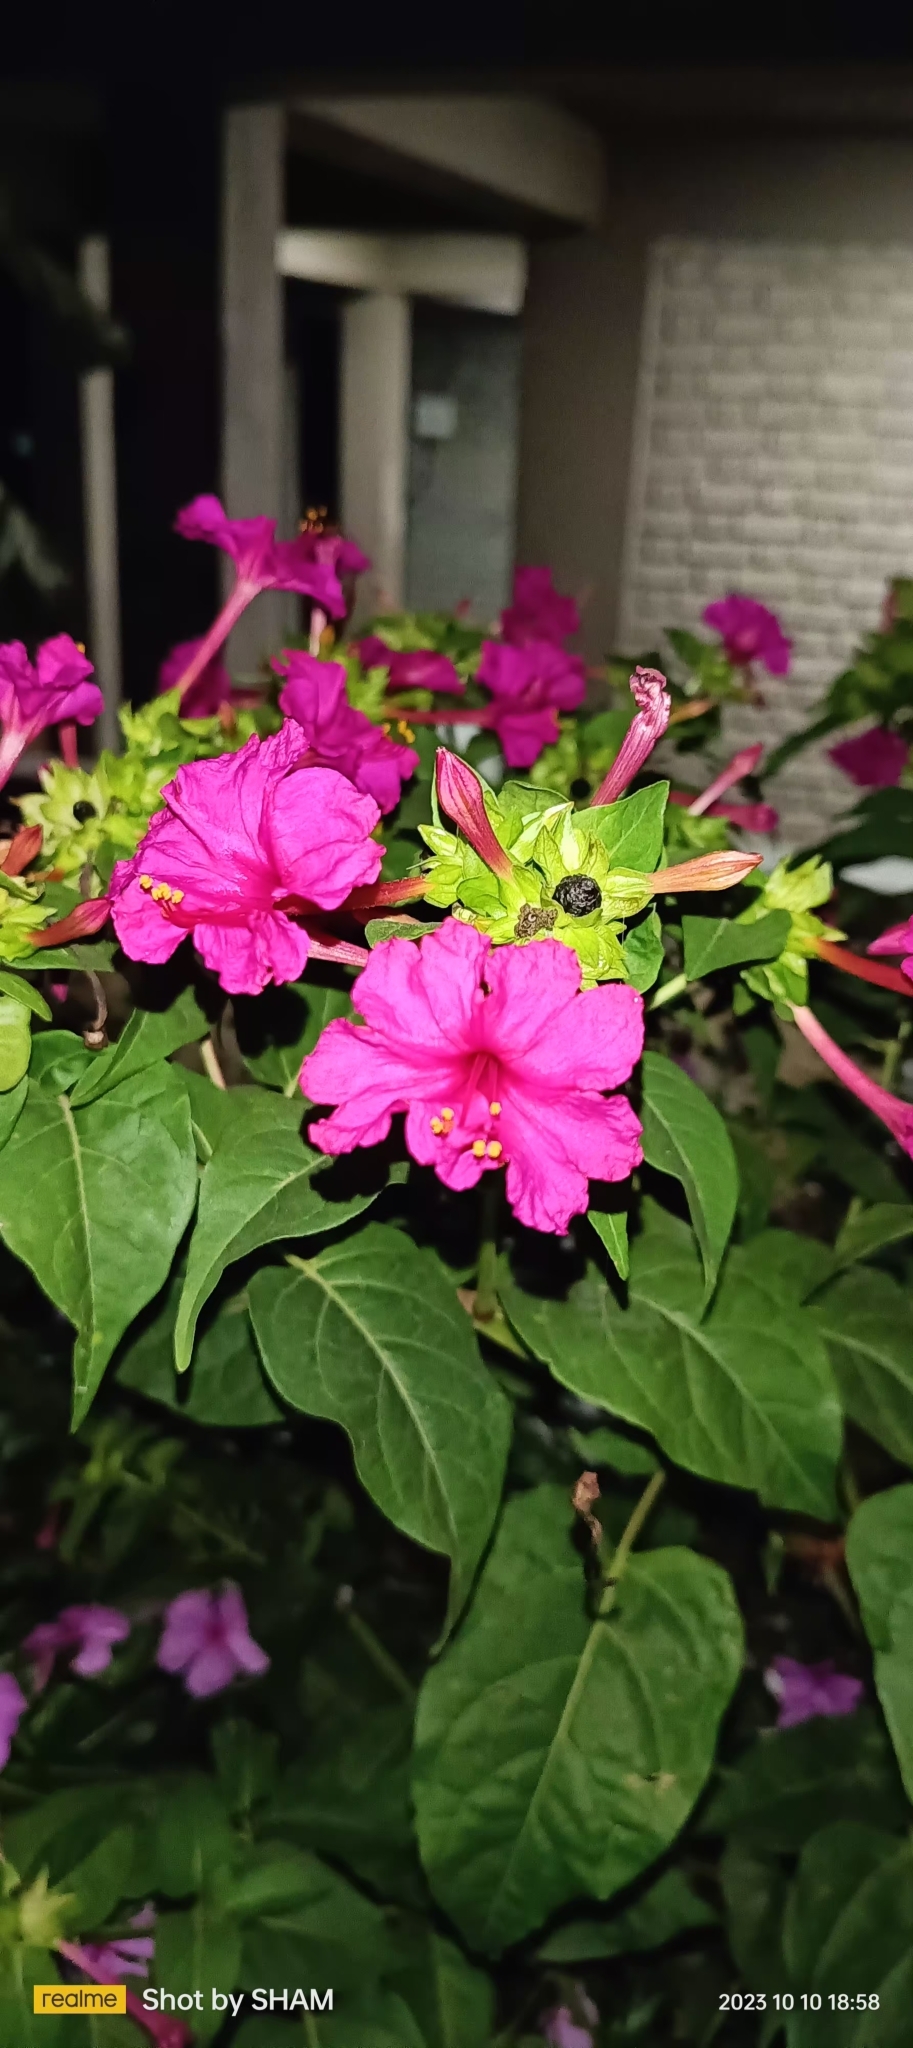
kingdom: Plantae
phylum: Tracheophyta
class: Magnoliopsida
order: Caryophyllales
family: Nyctaginaceae
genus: Mirabilis
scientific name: Mirabilis jalapa
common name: Marvel-of-peru
